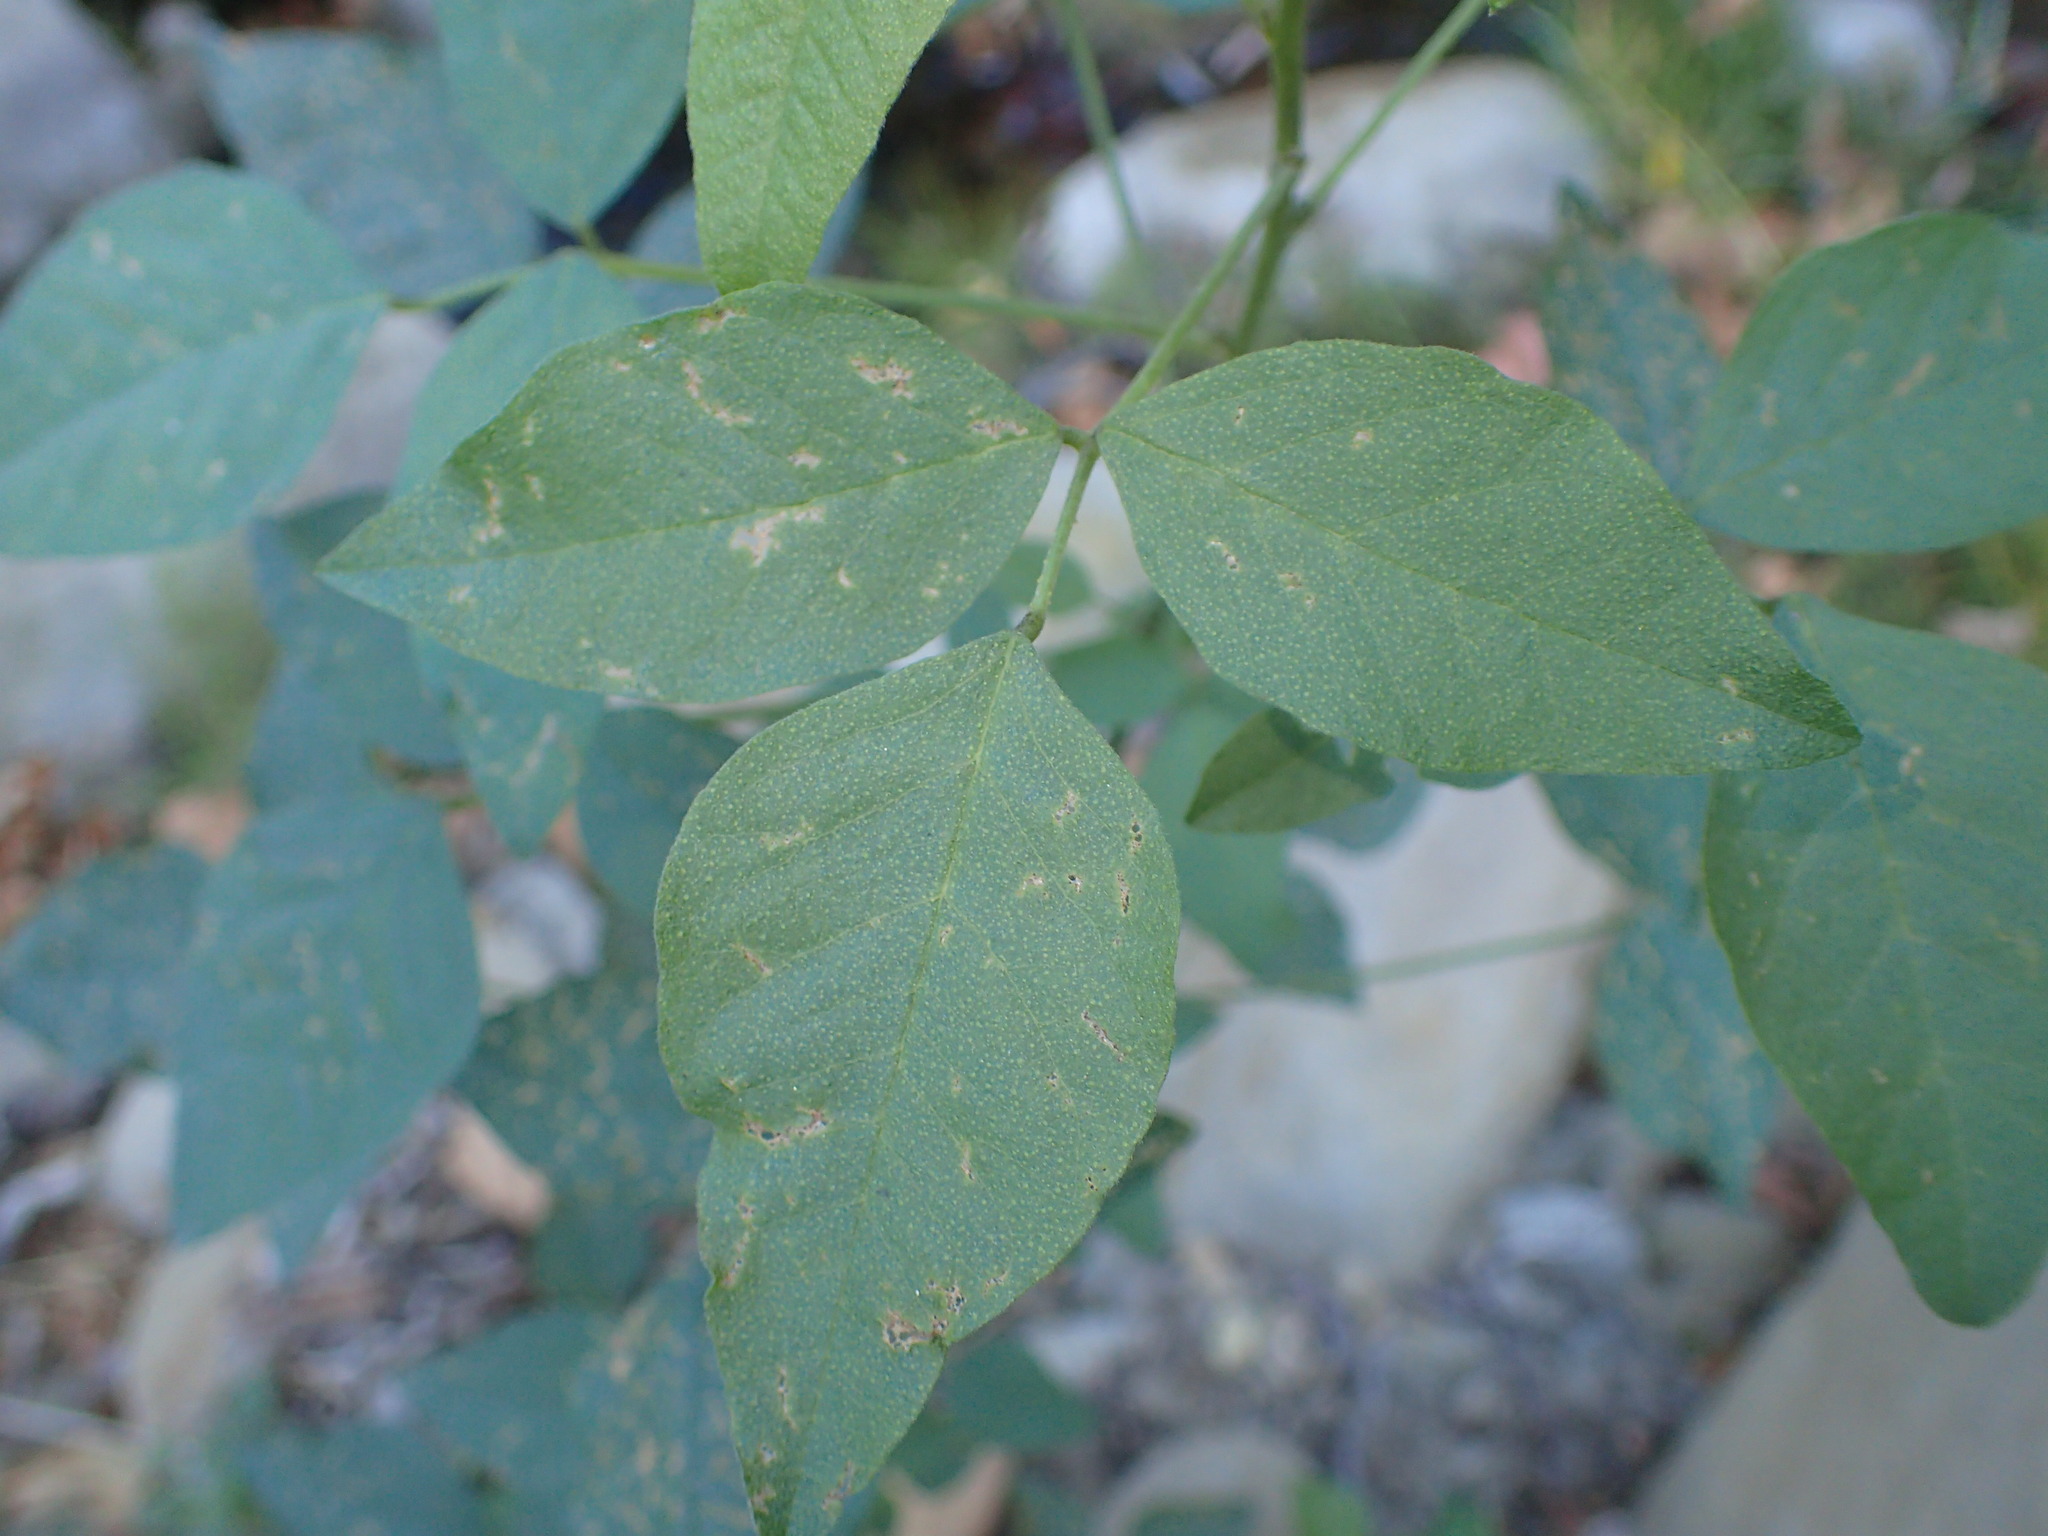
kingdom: Plantae
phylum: Tracheophyta
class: Magnoliopsida
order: Fabales
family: Fabaceae
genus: Hoita
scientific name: Hoita macrostachya
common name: Leatherroot
